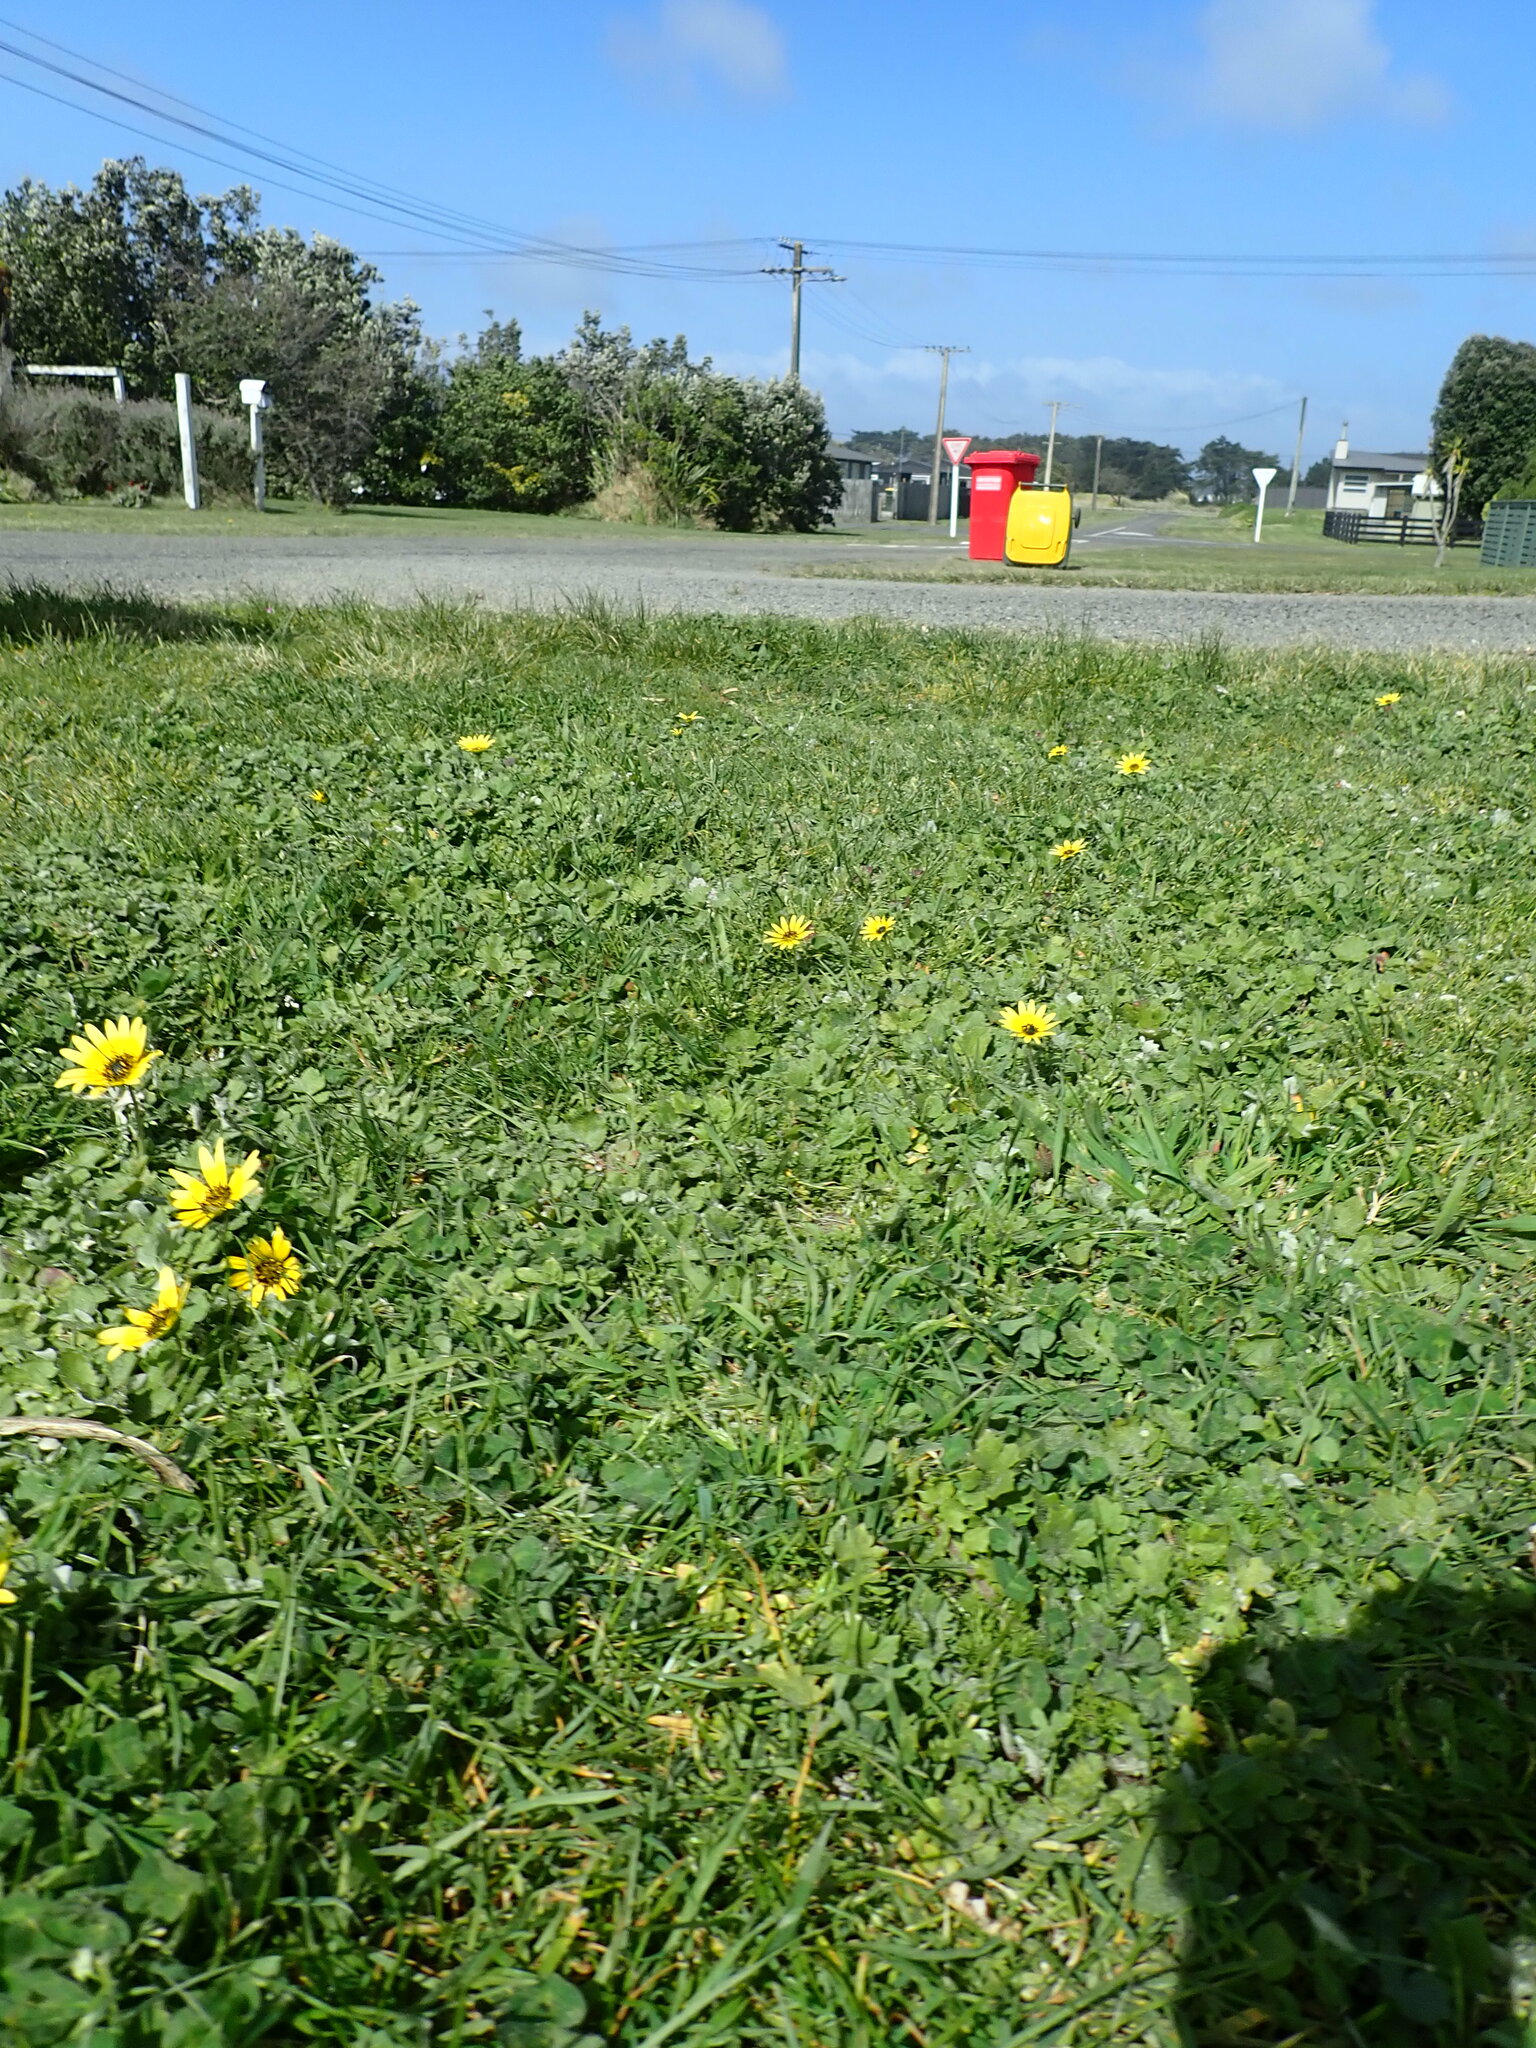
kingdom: Plantae
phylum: Tracheophyta
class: Magnoliopsida
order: Asterales
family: Asteraceae
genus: Arctotheca
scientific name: Arctotheca calendula
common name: Capeweed
